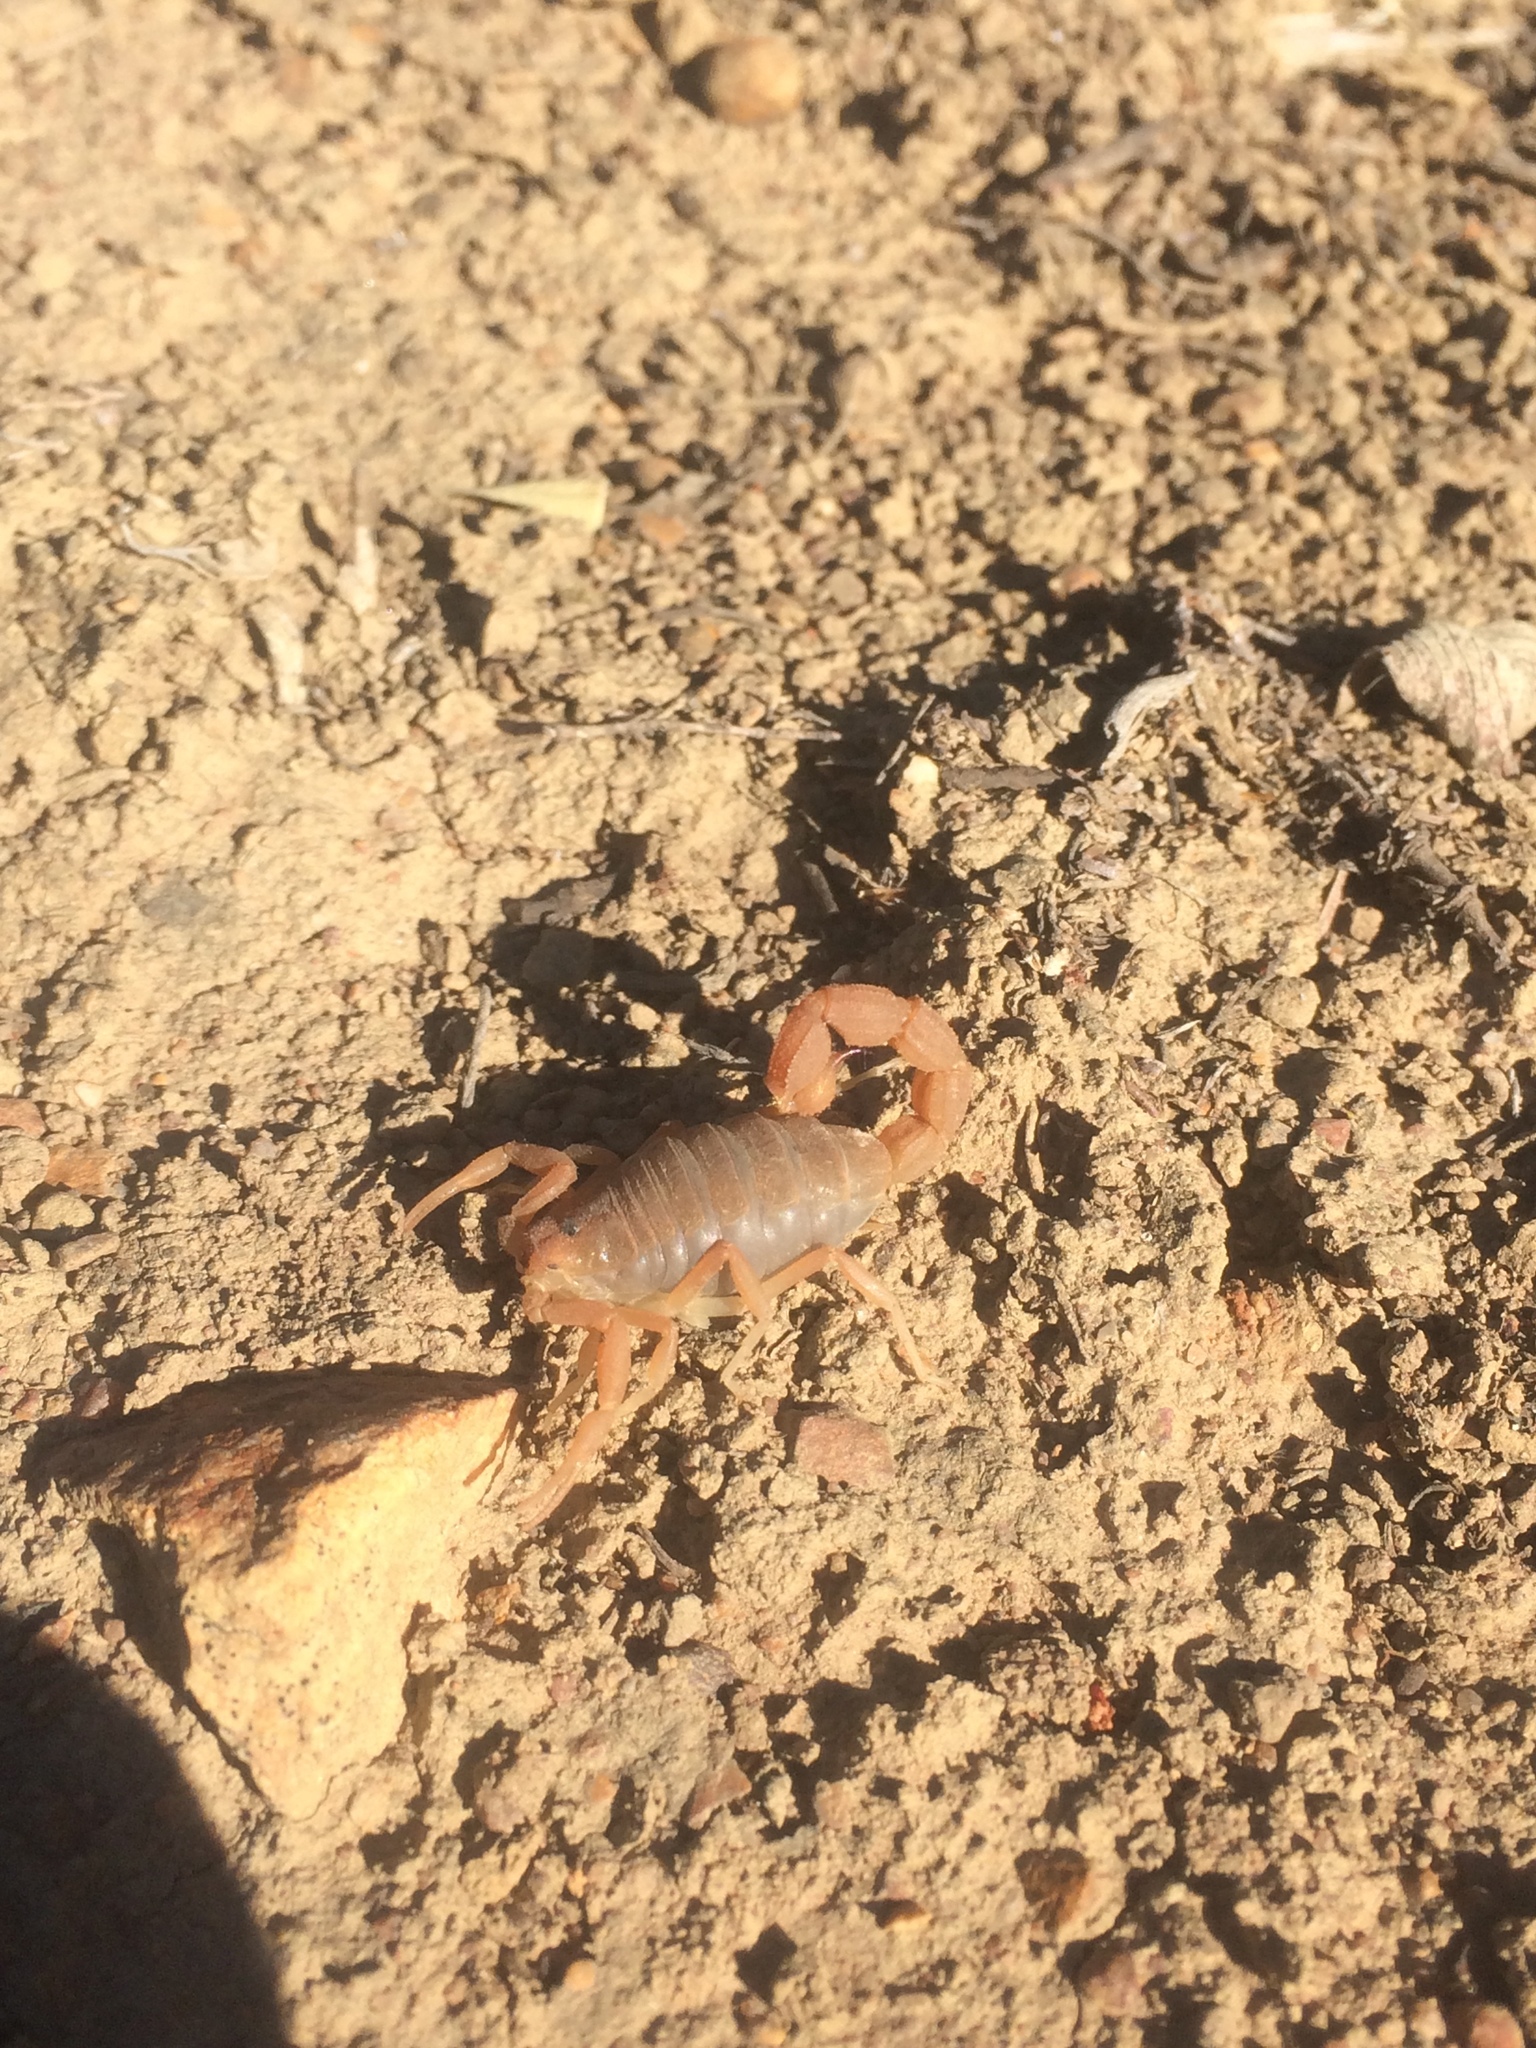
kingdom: Animalia
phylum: Arthropoda
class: Arachnida
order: Scorpiones
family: Buthidae
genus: Parabuthus
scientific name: Parabuthus planicauda
